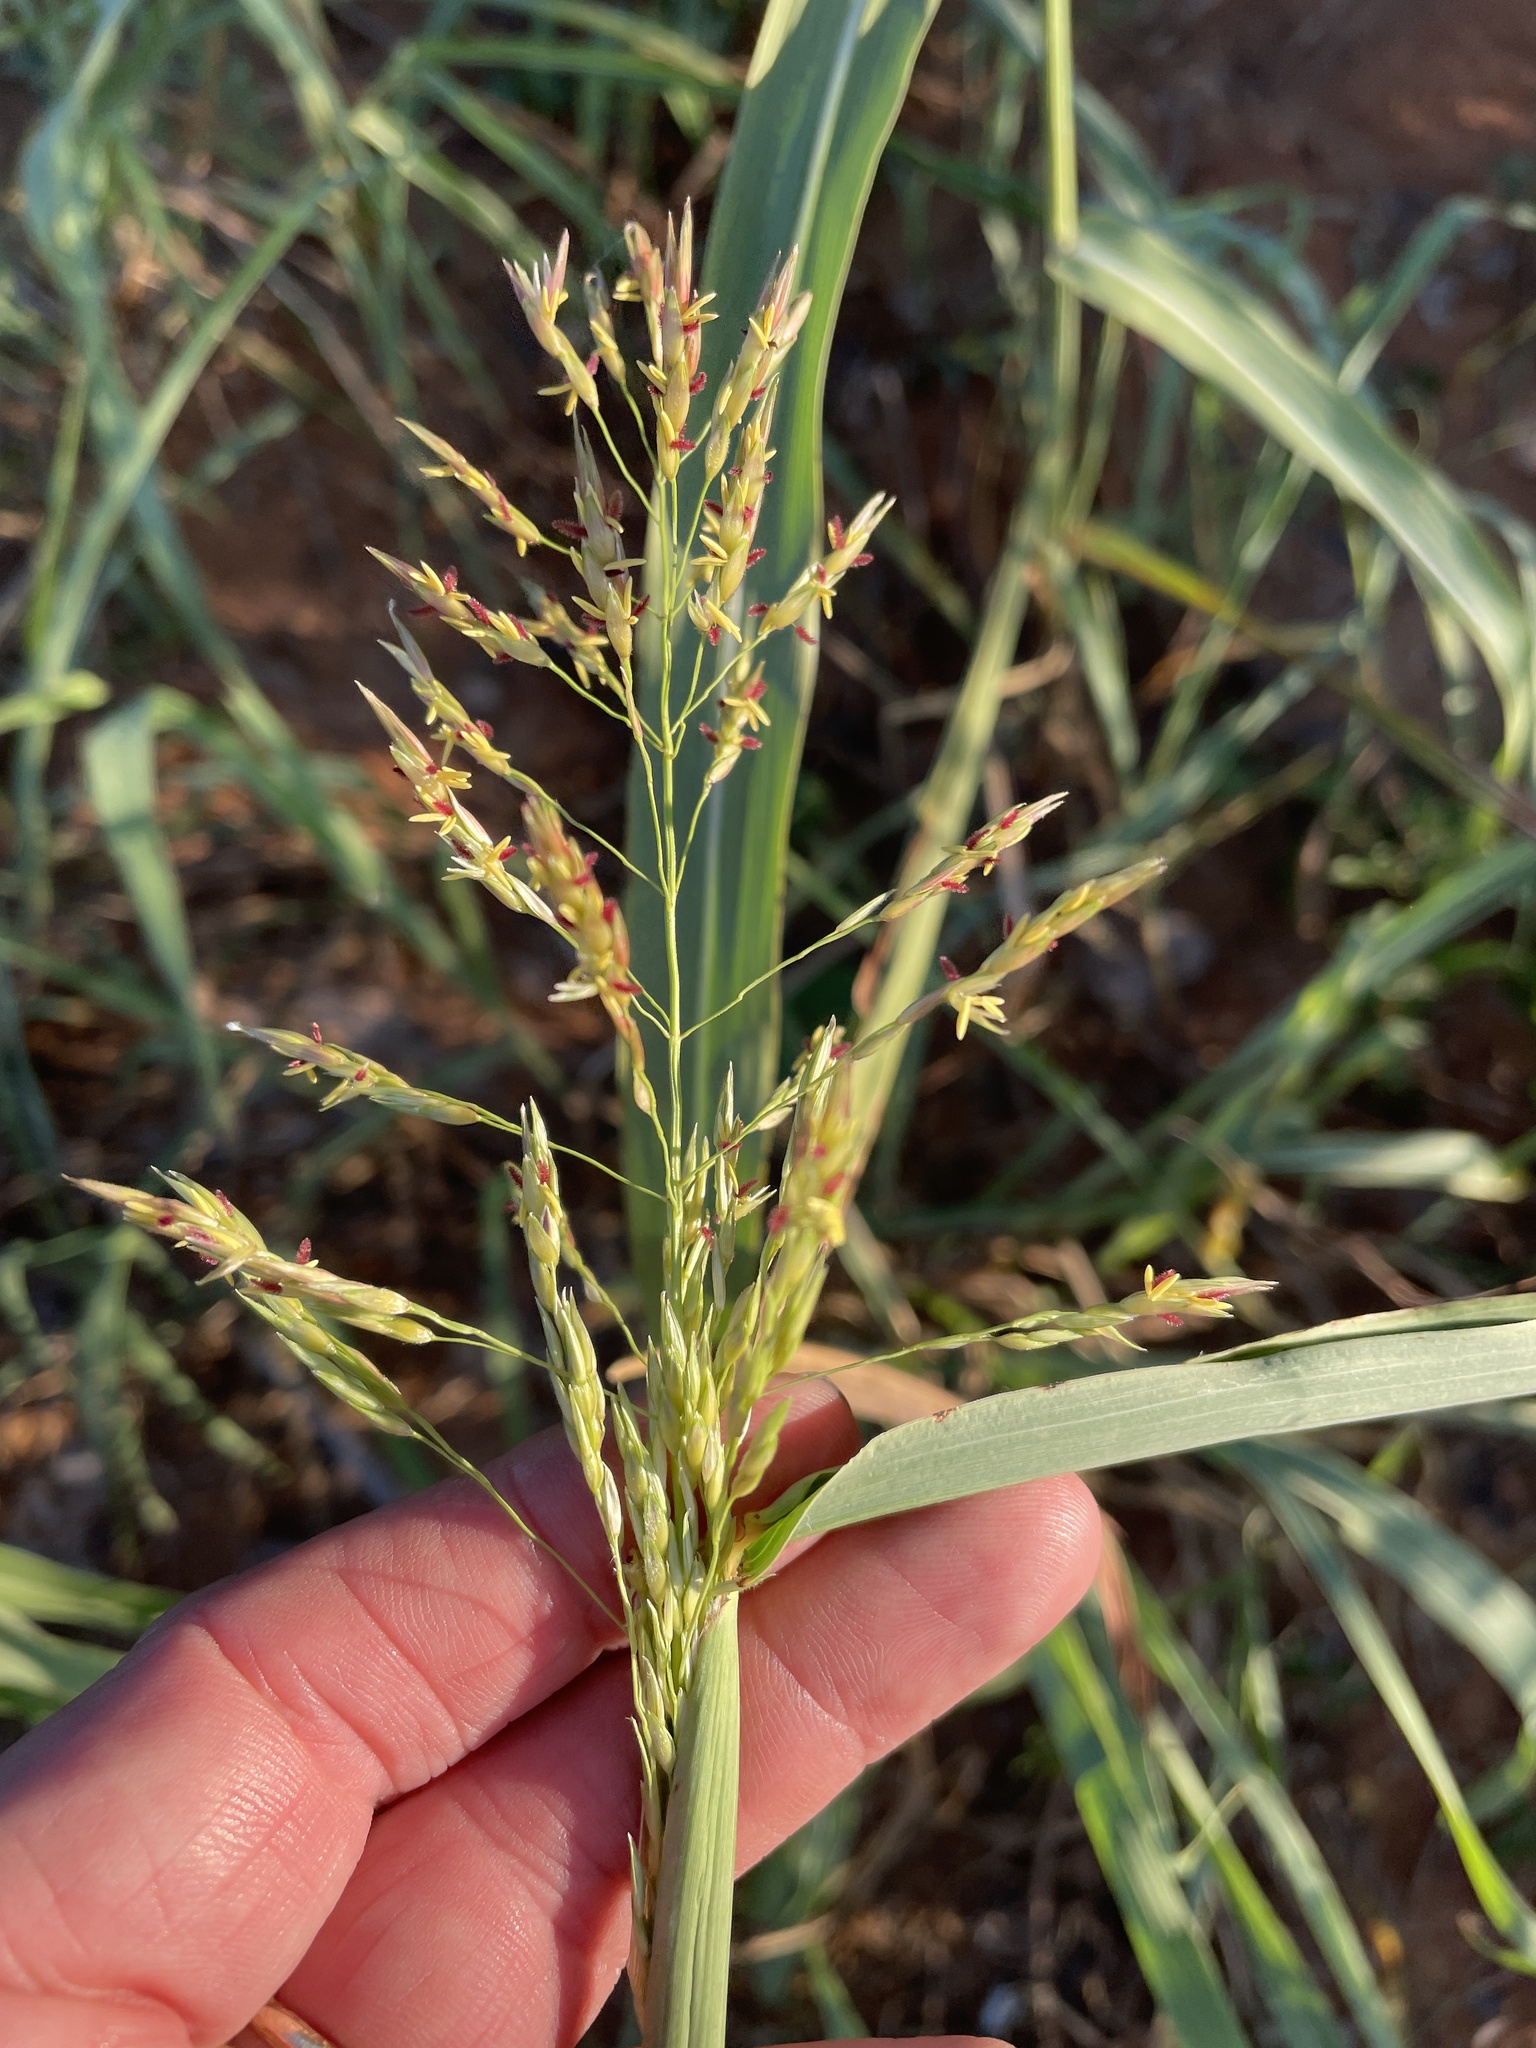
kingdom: Plantae
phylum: Tracheophyta
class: Liliopsida
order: Poales
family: Poaceae
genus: Sorghum
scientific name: Sorghum halepense
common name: Johnson-grass
